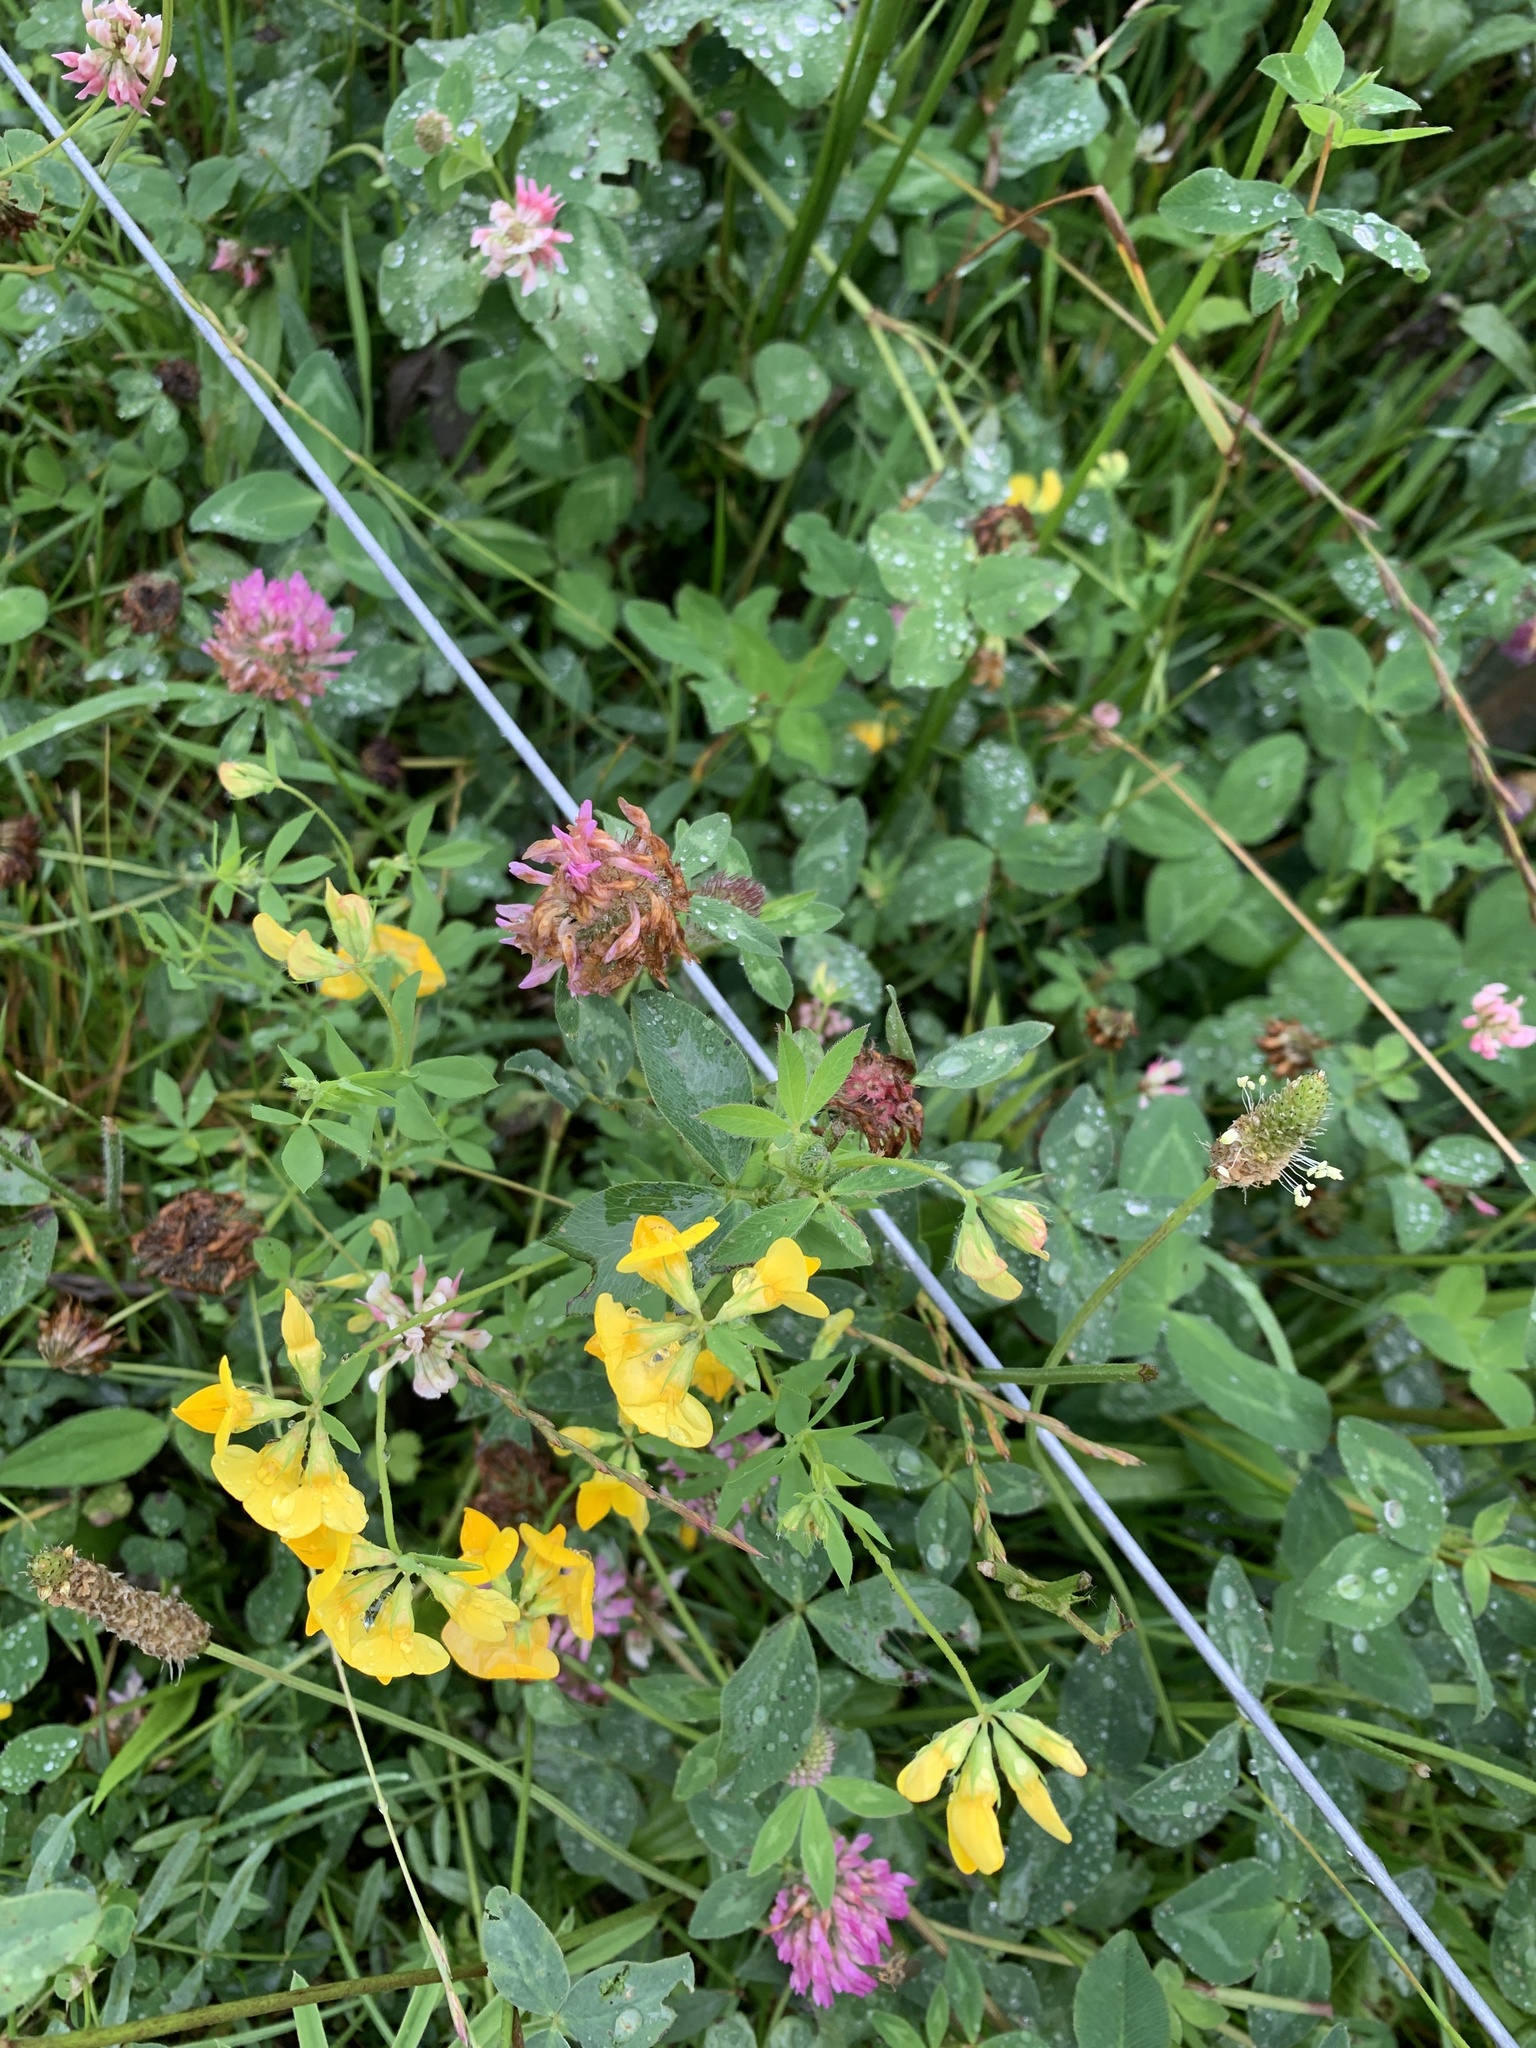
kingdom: Plantae
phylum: Tracheophyta
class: Magnoliopsida
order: Fabales
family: Fabaceae
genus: Trifolium
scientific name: Trifolium pratense
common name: Red clover
